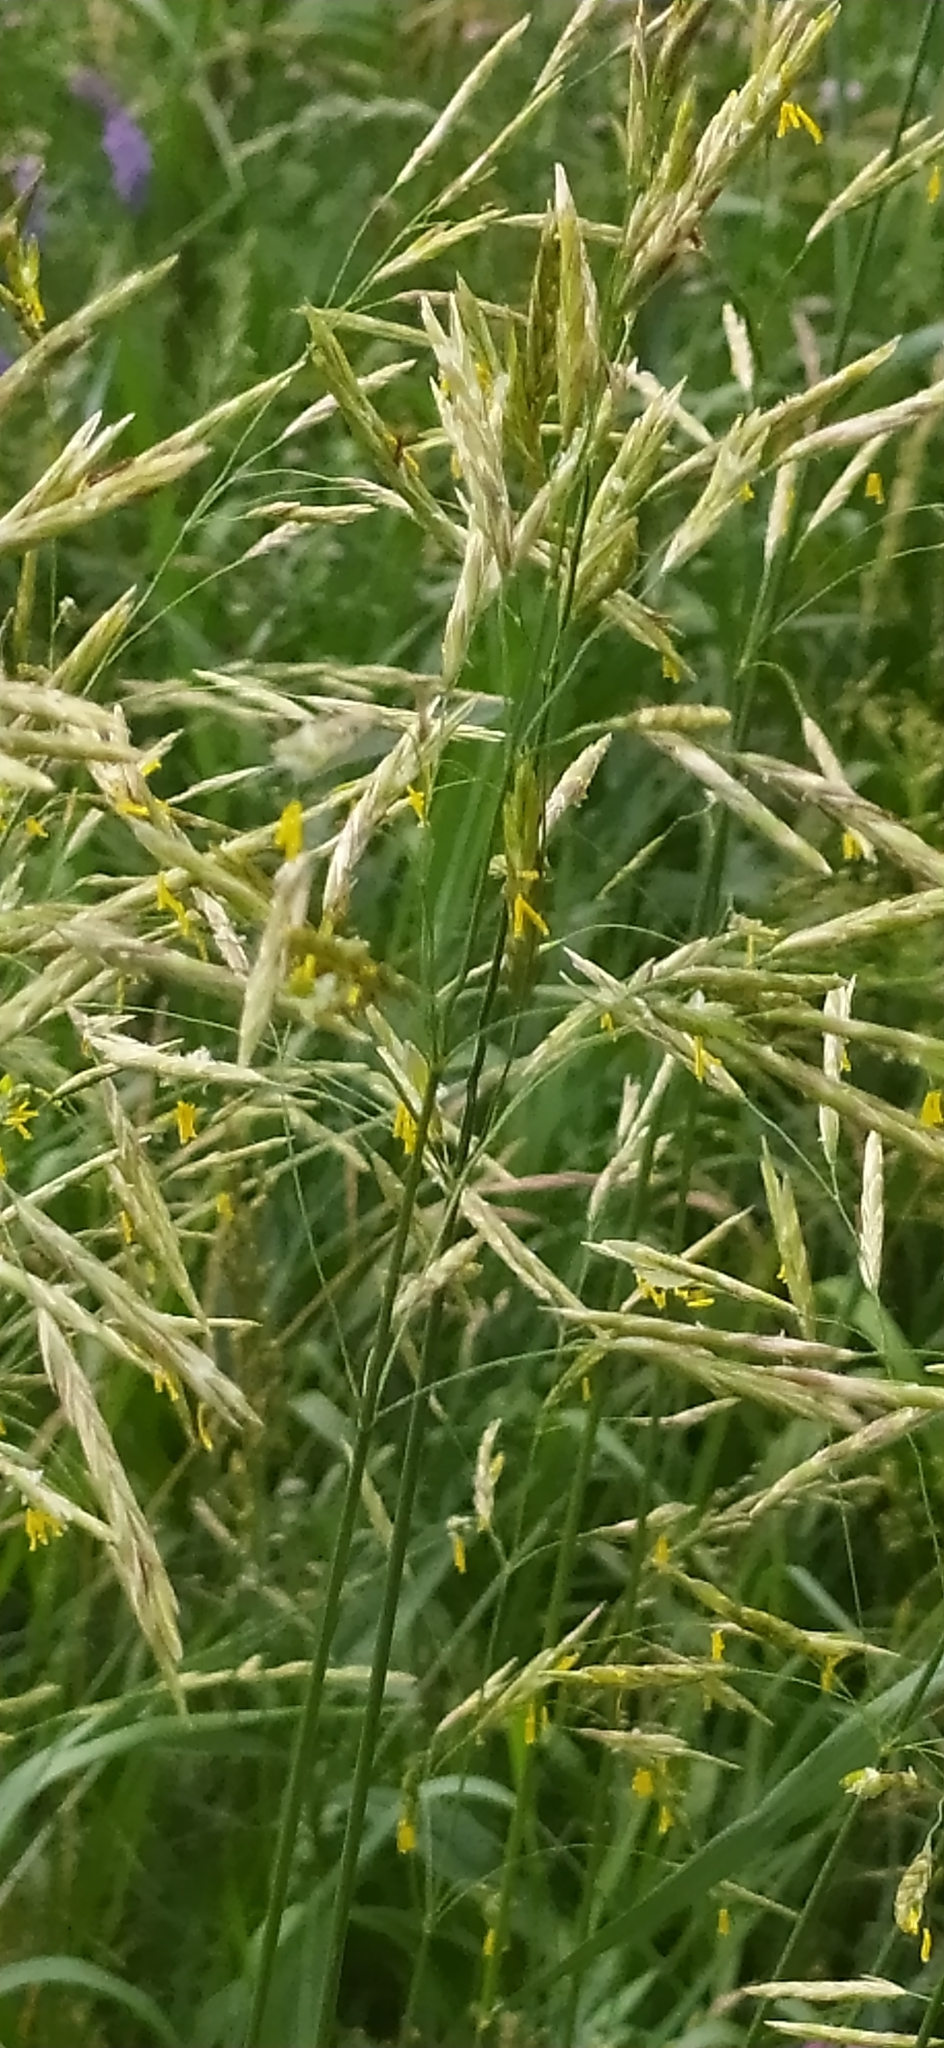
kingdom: Plantae
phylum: Tracheophyta
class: Liliopsida
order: Poales
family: Poaceae
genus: Bromus
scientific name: Bromus inermis
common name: Smooth brome
